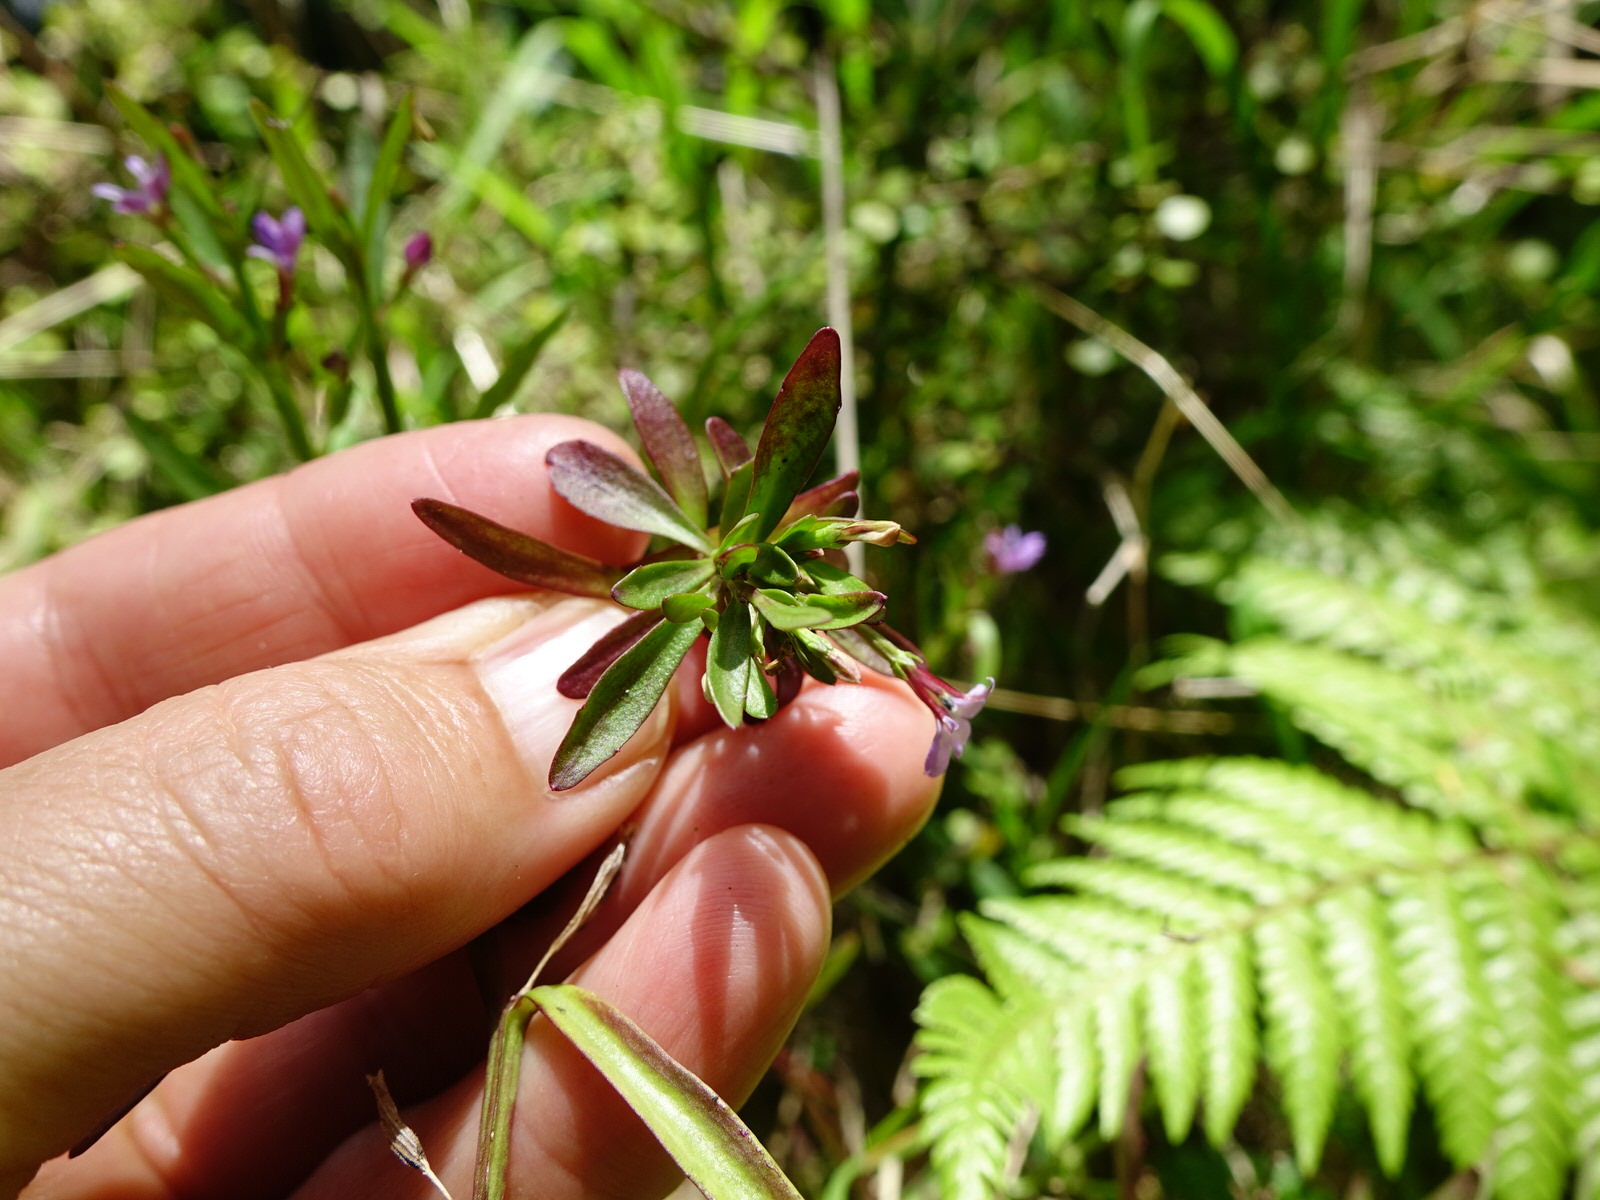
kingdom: Plantae
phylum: Tracheophyta
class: Magnoliopsida
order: Asterales
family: Campanulaceae
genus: Lobelia
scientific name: Lobelia anceps
